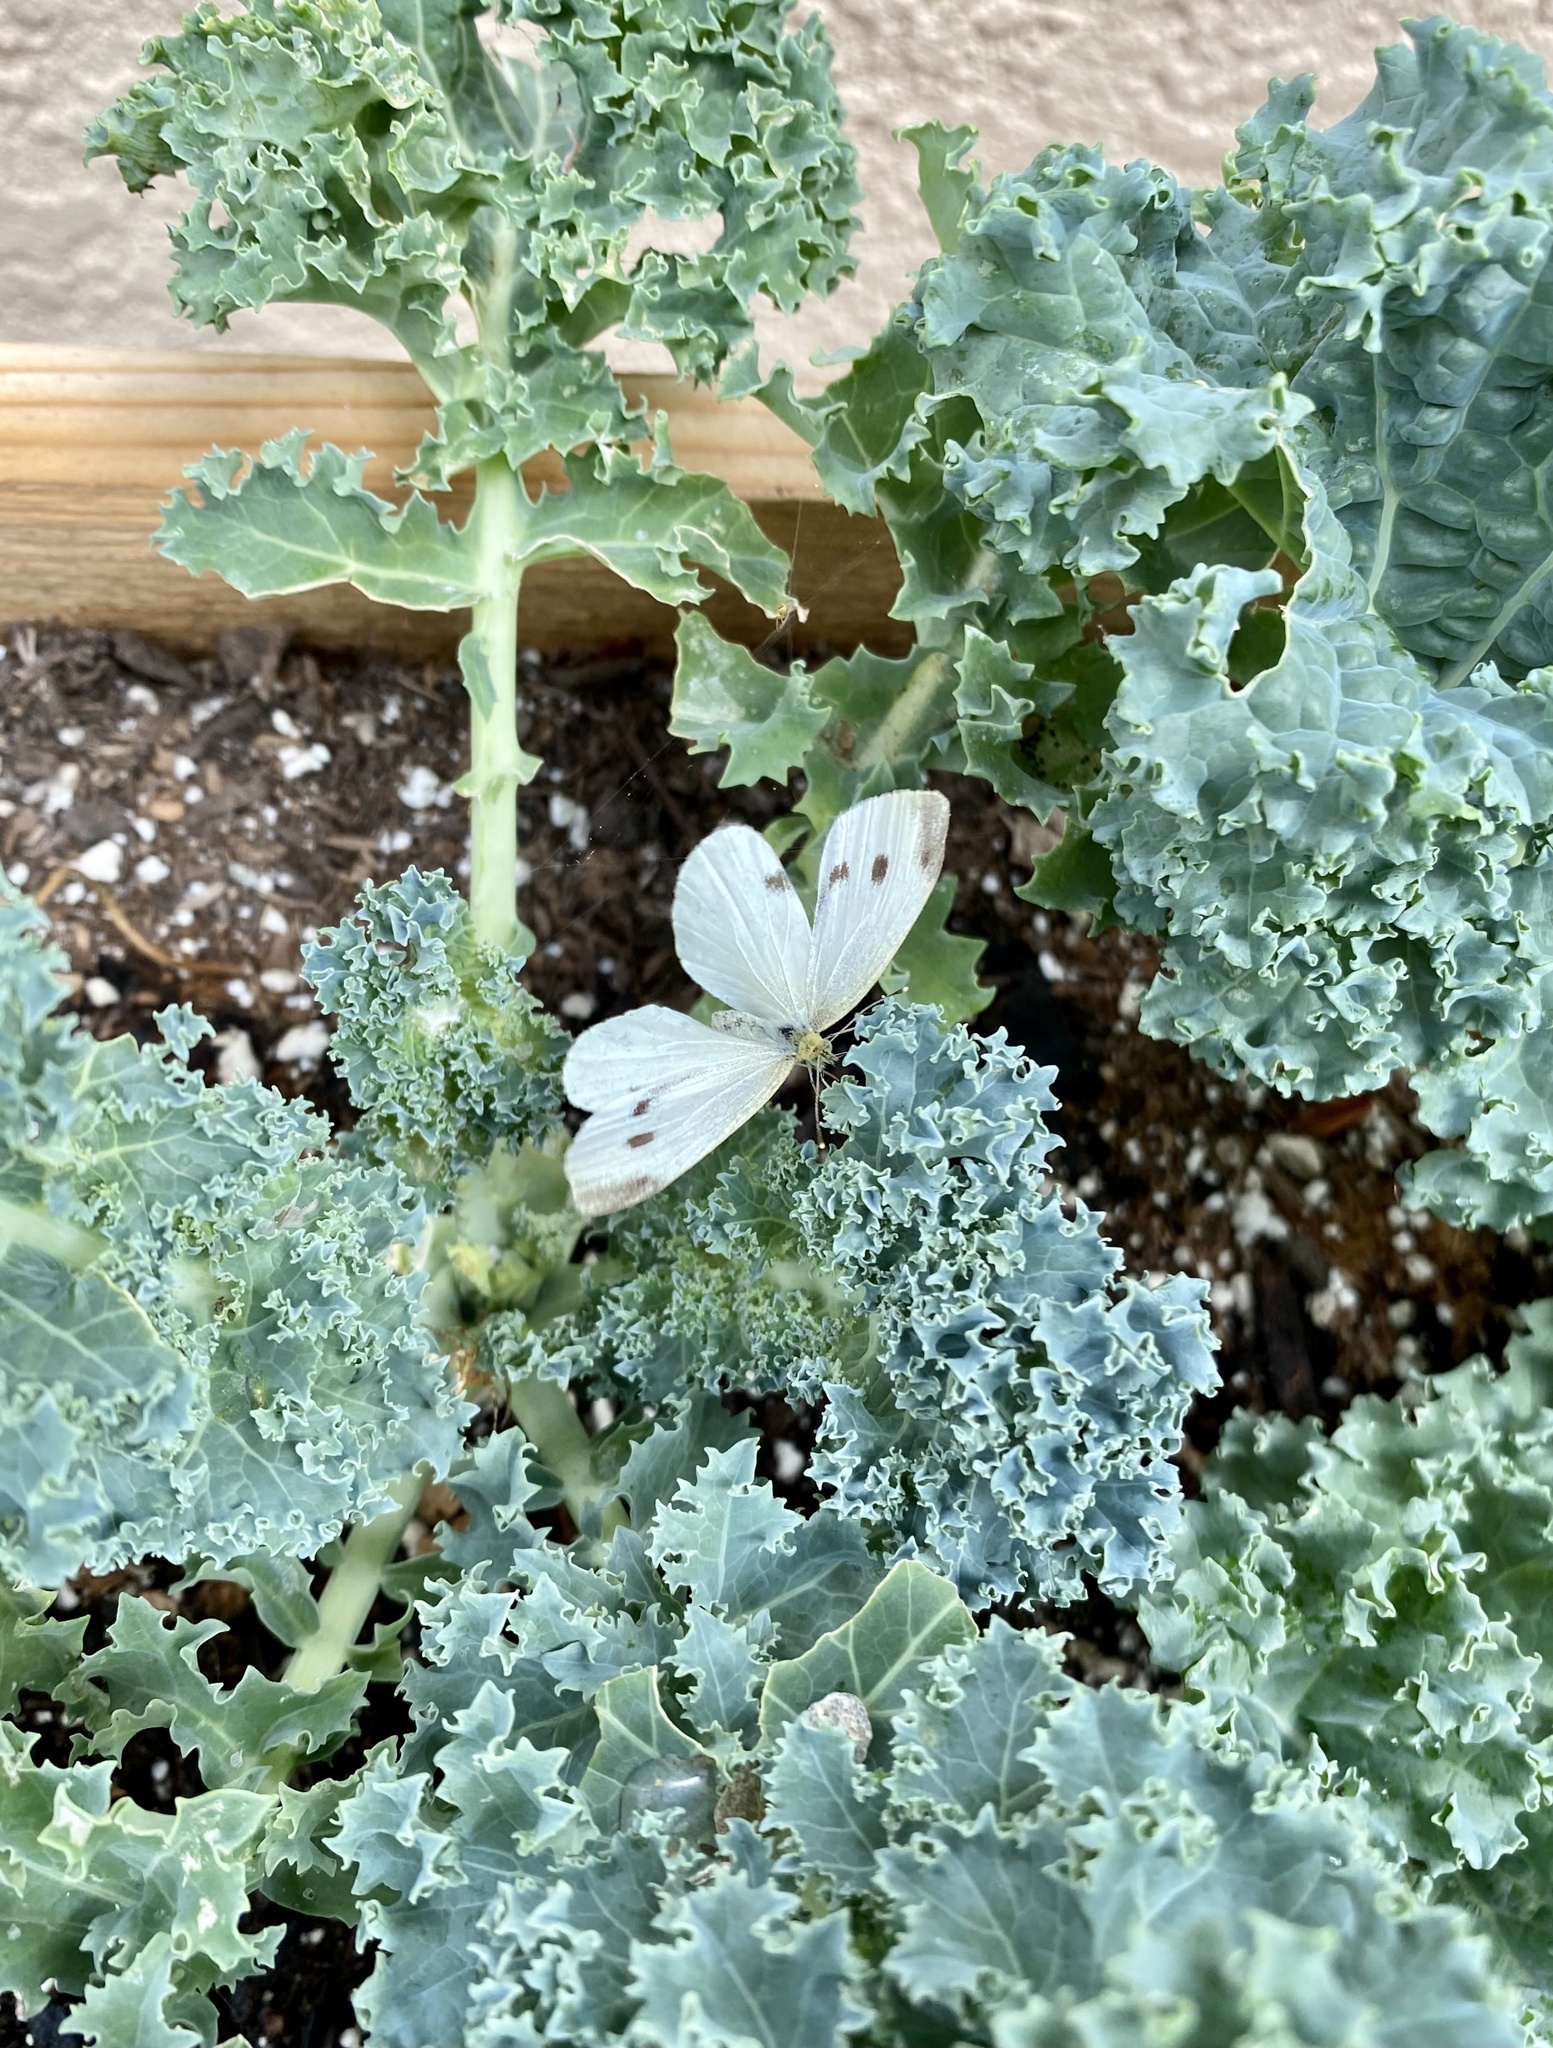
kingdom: Animalia
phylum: Arthropoda
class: Insecta
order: Lepidoptera
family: Pieridae
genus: Pieris
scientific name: Pieris rapae
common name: Small white
